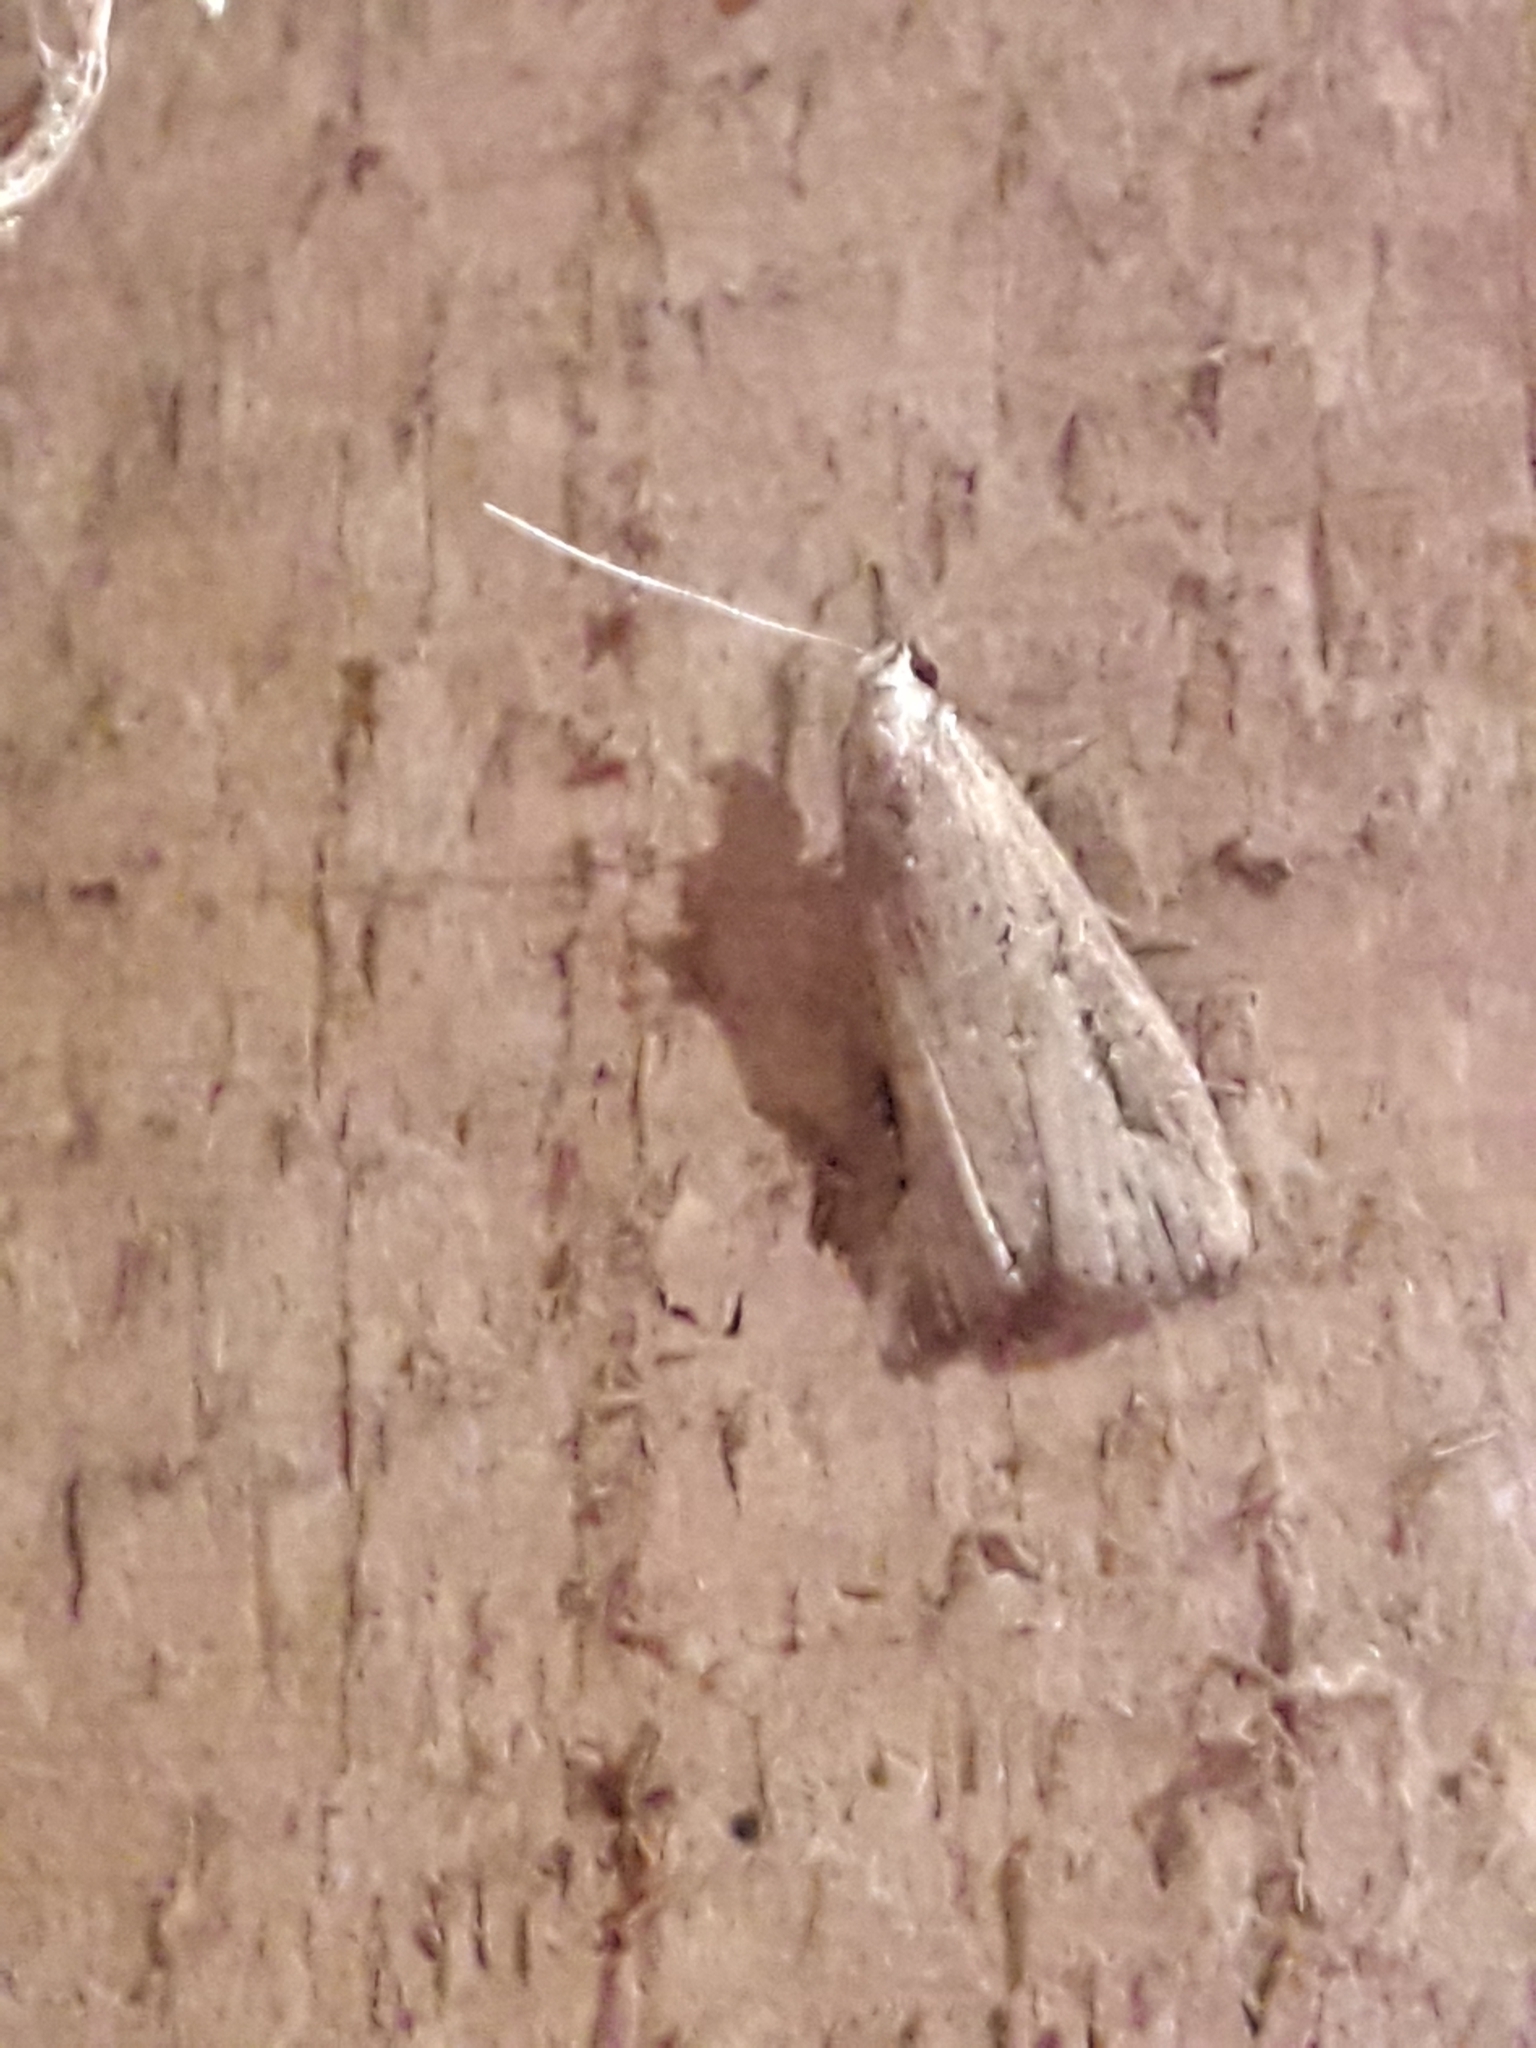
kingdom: Animalia
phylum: Arthropoda
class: Insecta
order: Lepidoptera
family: Erebidae
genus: Schrankia
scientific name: Schrankia costaestrigalis
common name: Pinion-streaked snout
